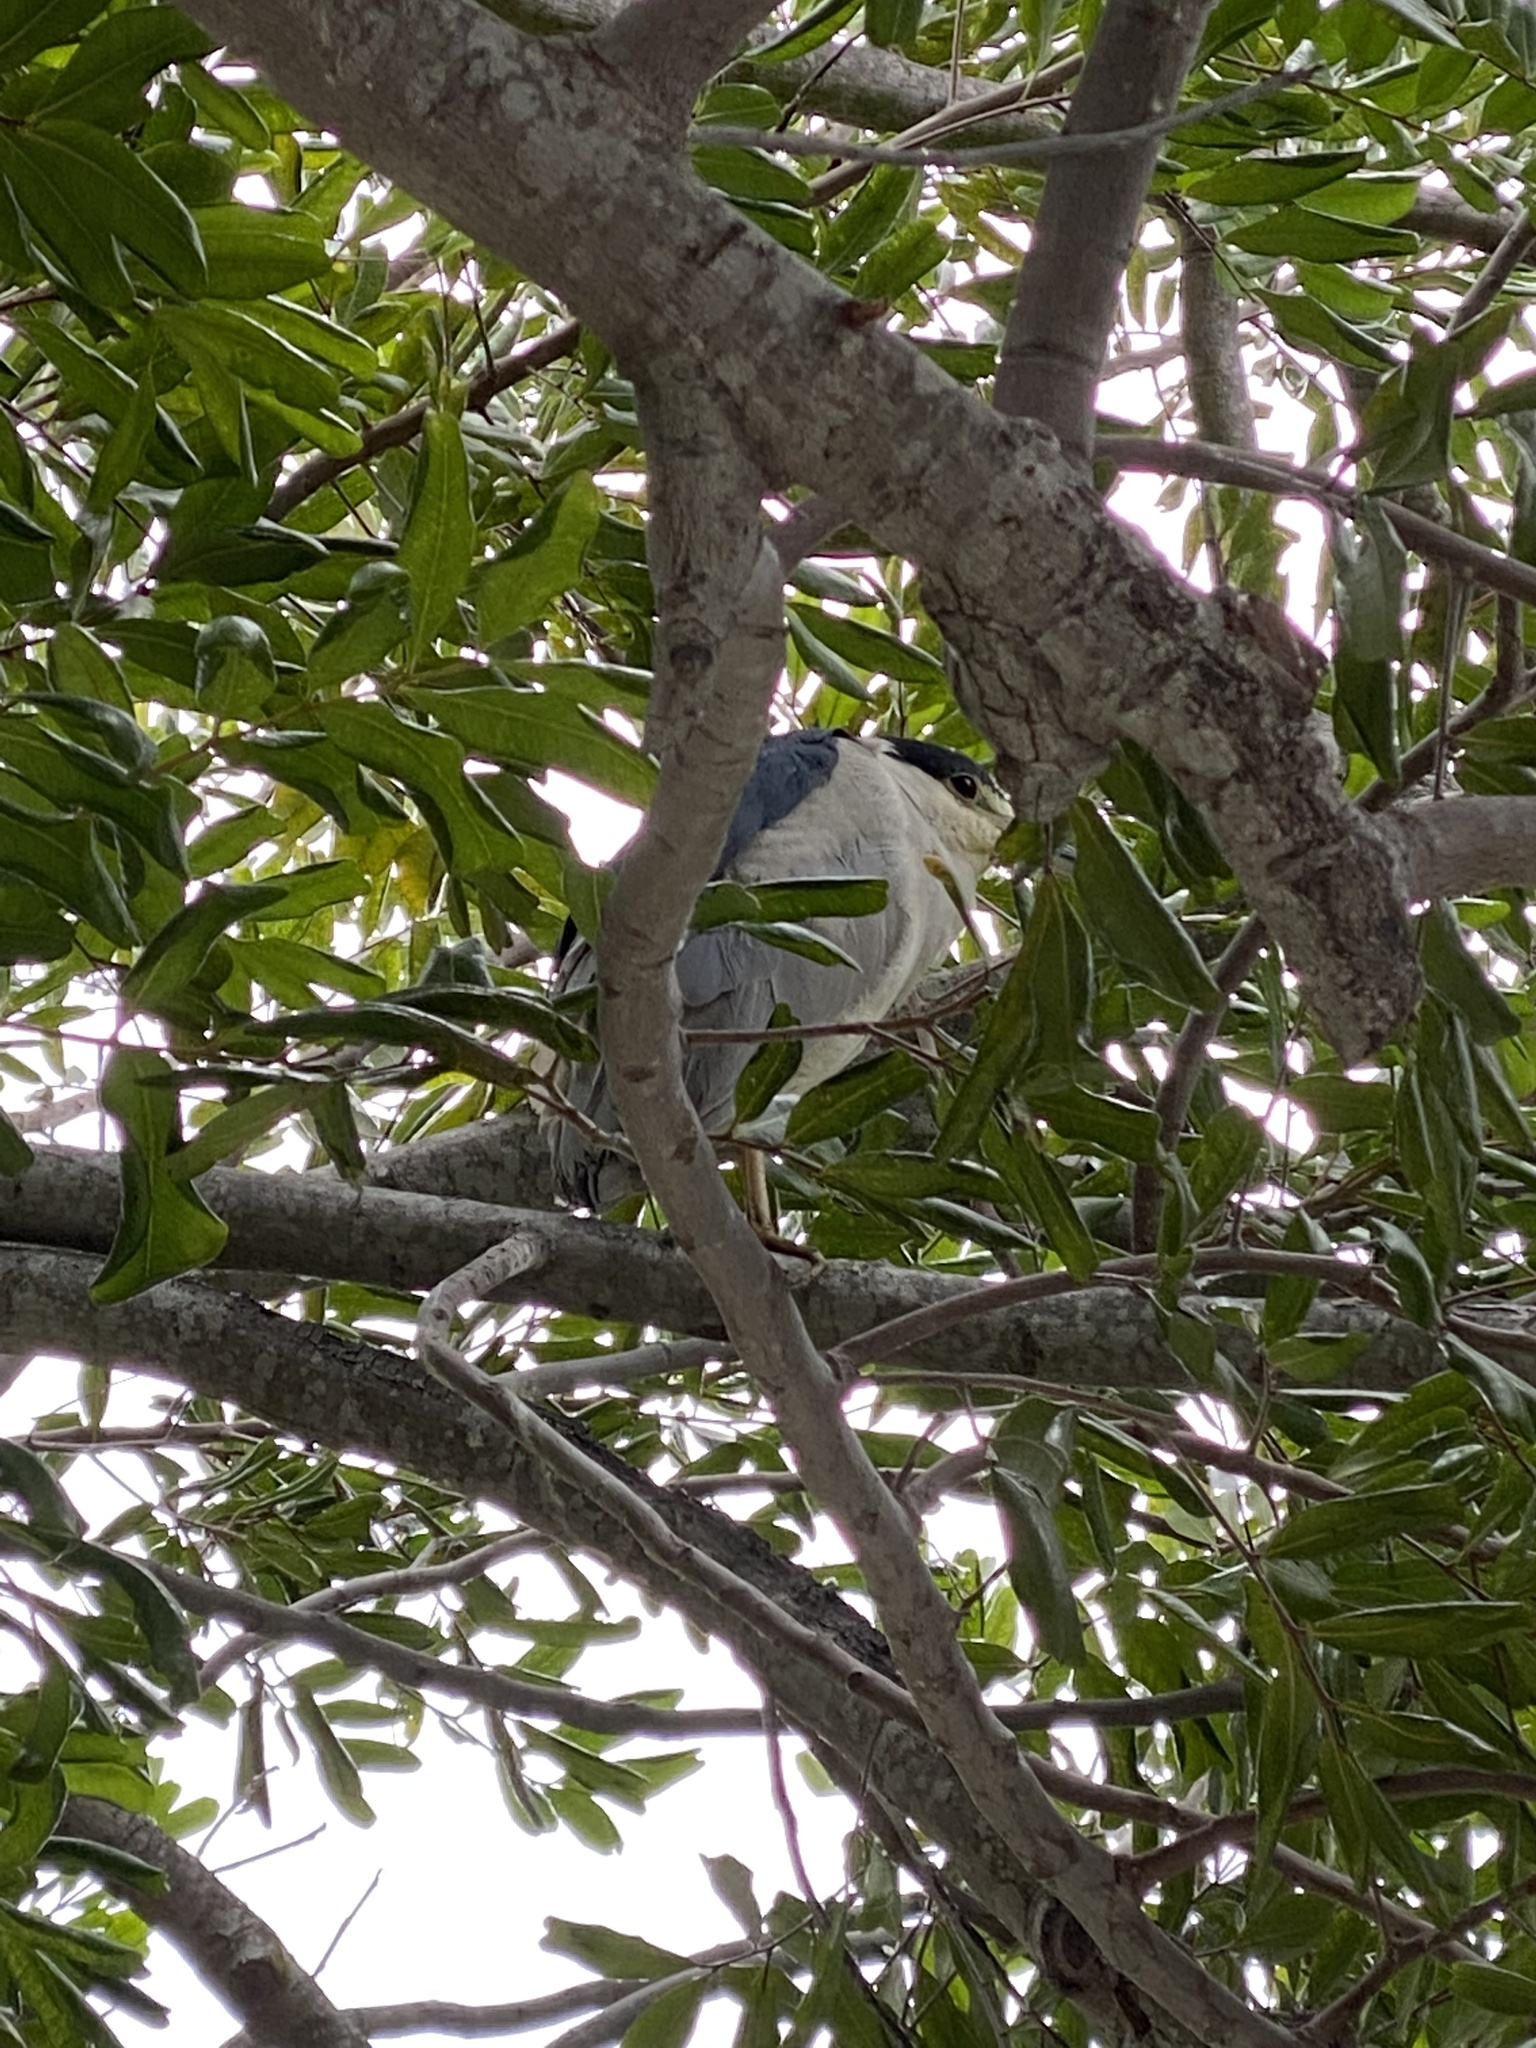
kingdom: Animalia
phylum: Chordata
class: Aves
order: Pelecaniformes
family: Ardeidae
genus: Nycticorax
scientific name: Nycticorax nycticorax
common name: Black-crowned night heron
